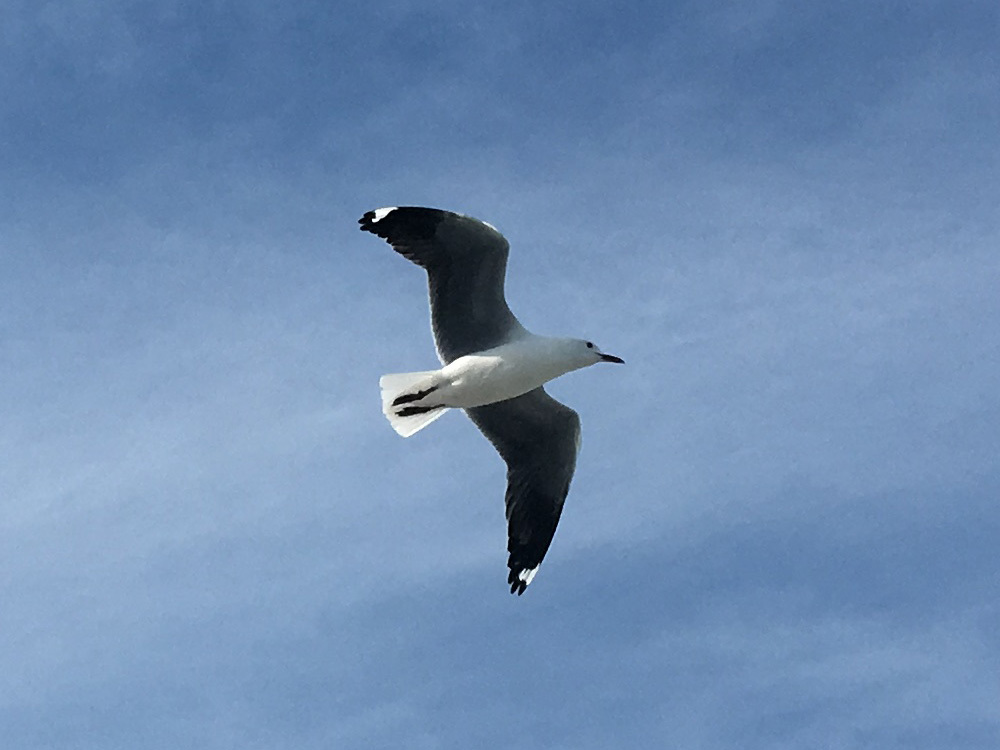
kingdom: Animalia
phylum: Chordata
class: Aves
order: Charadriiformes
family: Laridae
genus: Chroicocephalus
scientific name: Chroicocephalus hartlaubii
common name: Hartlaub's gull
